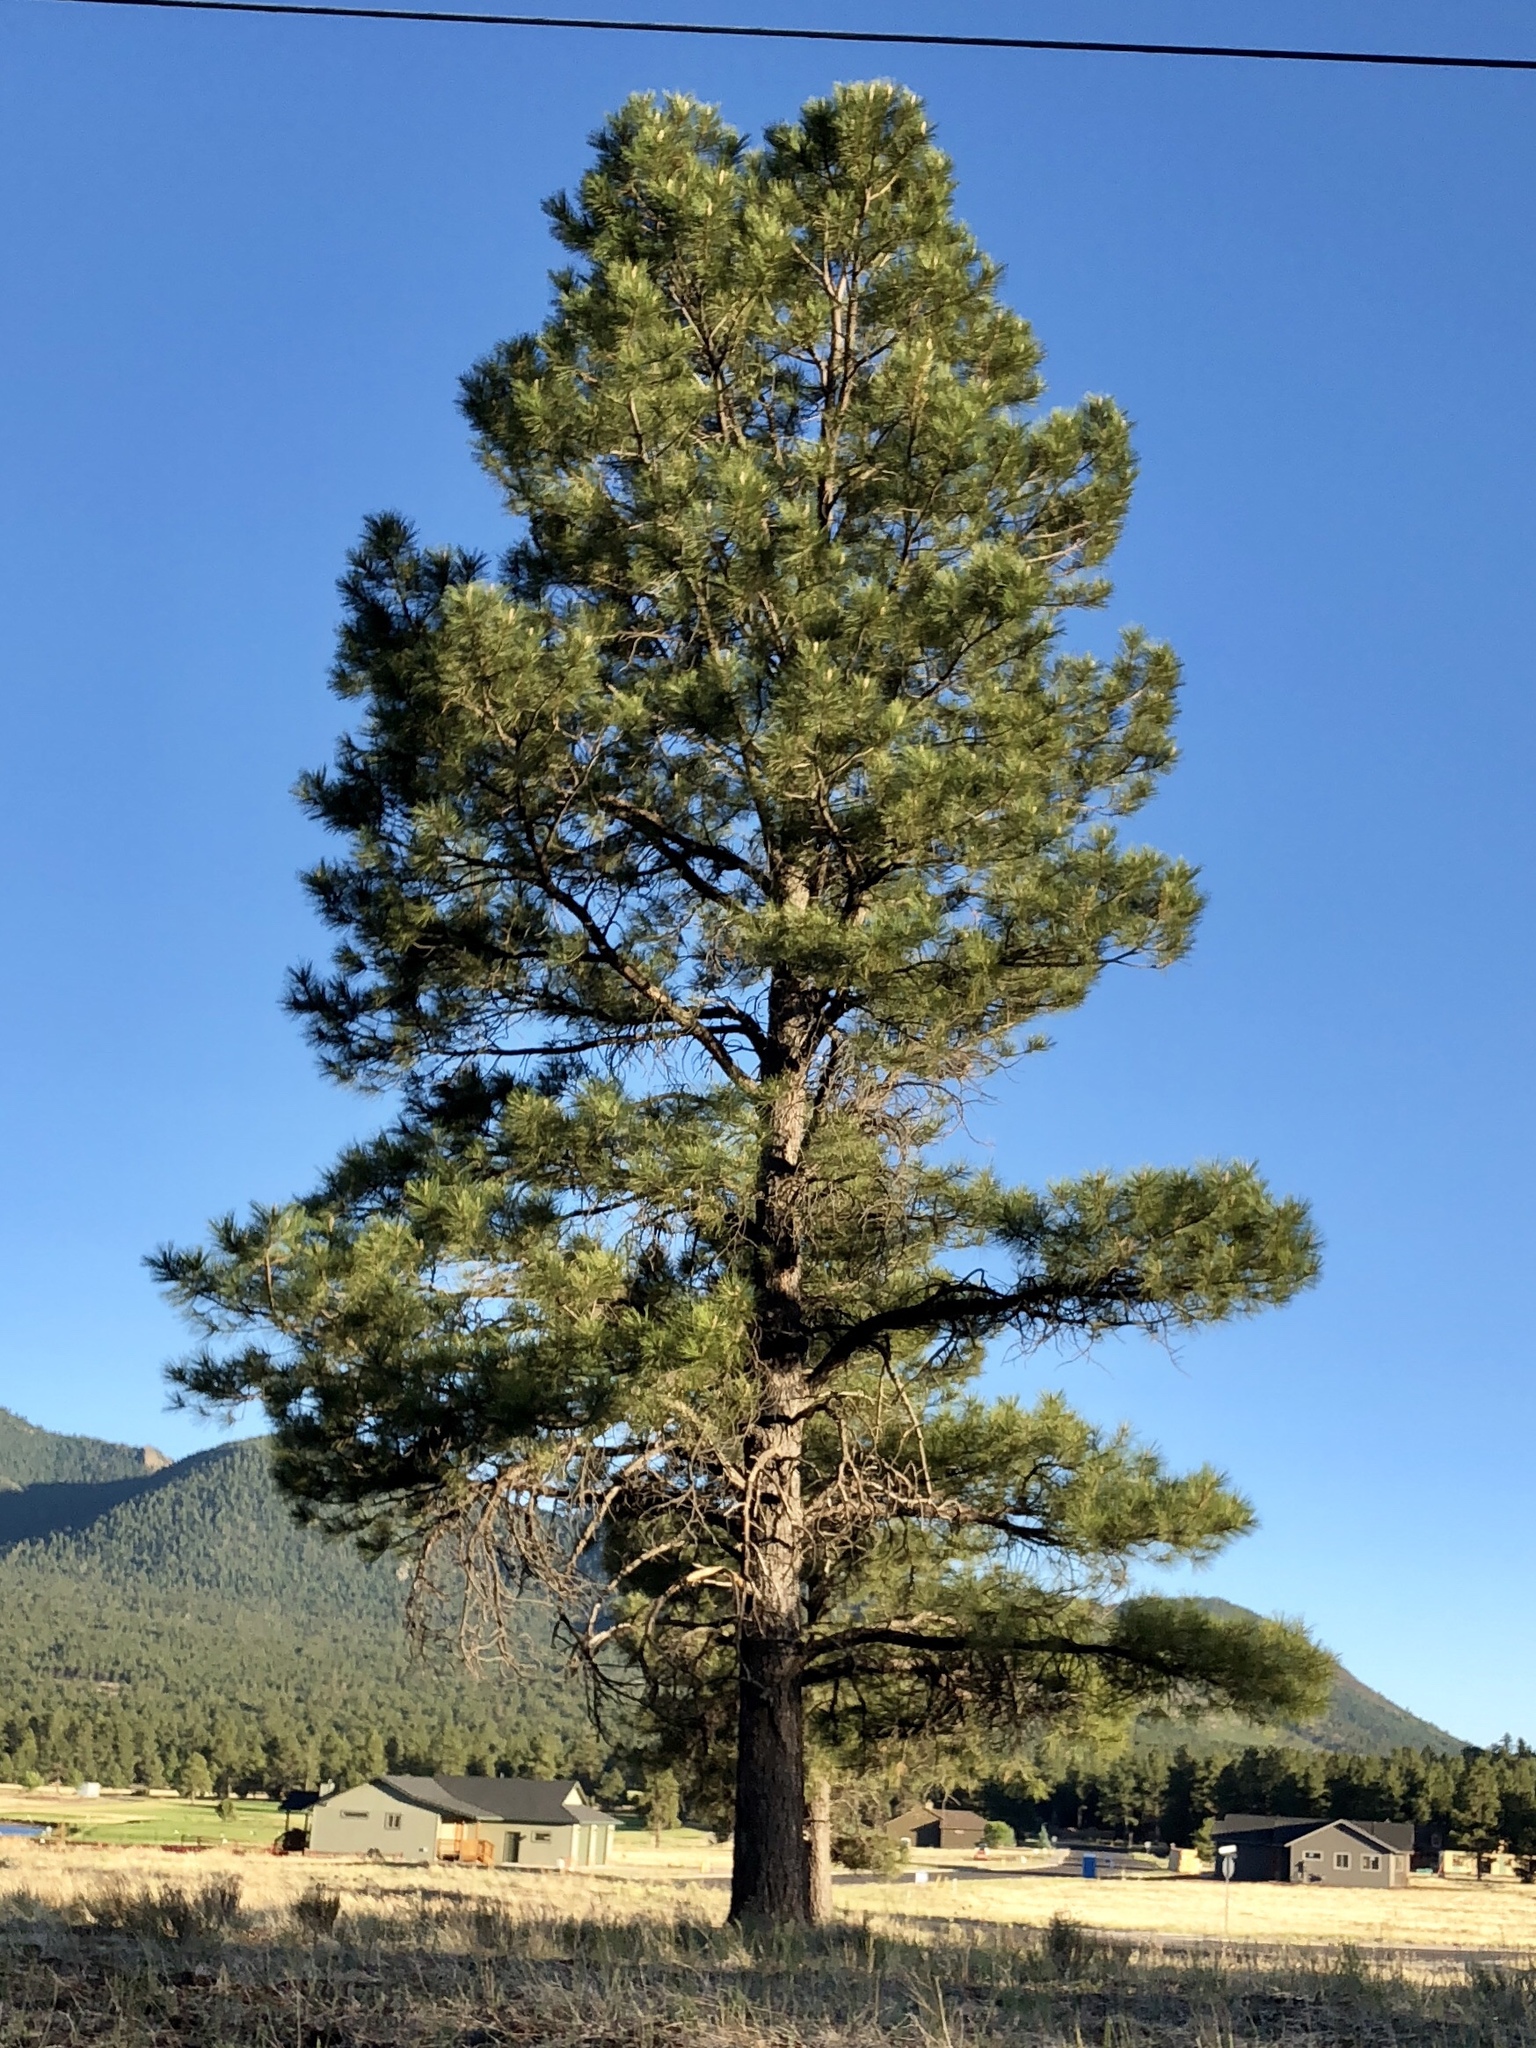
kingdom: Plantae
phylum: Tracheophyta
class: Pinopsida
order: Pinales
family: Pinaceae
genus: Pinus
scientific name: Pinus ponderosa
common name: Western yellow-pine
